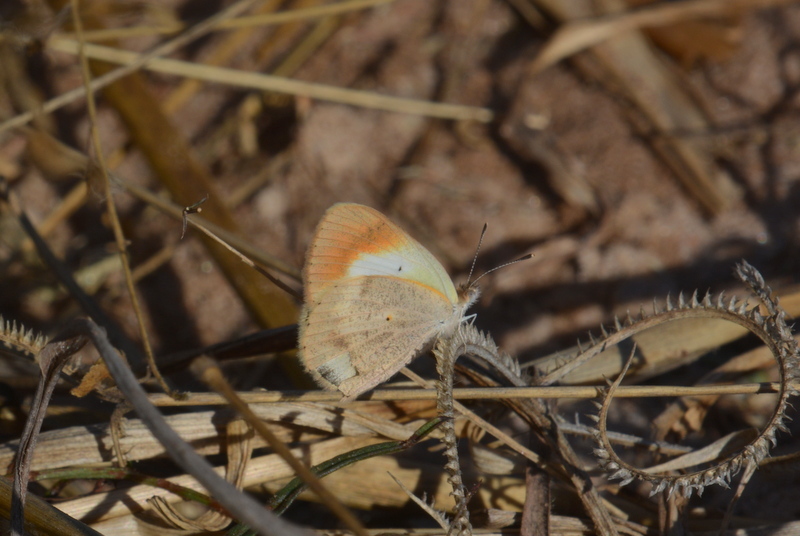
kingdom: Animalia
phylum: Arthropoda
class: Insecta
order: Lepidoptera
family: Pieridae
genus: Colotis
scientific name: Colotis evagore
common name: Desert orange-tip
